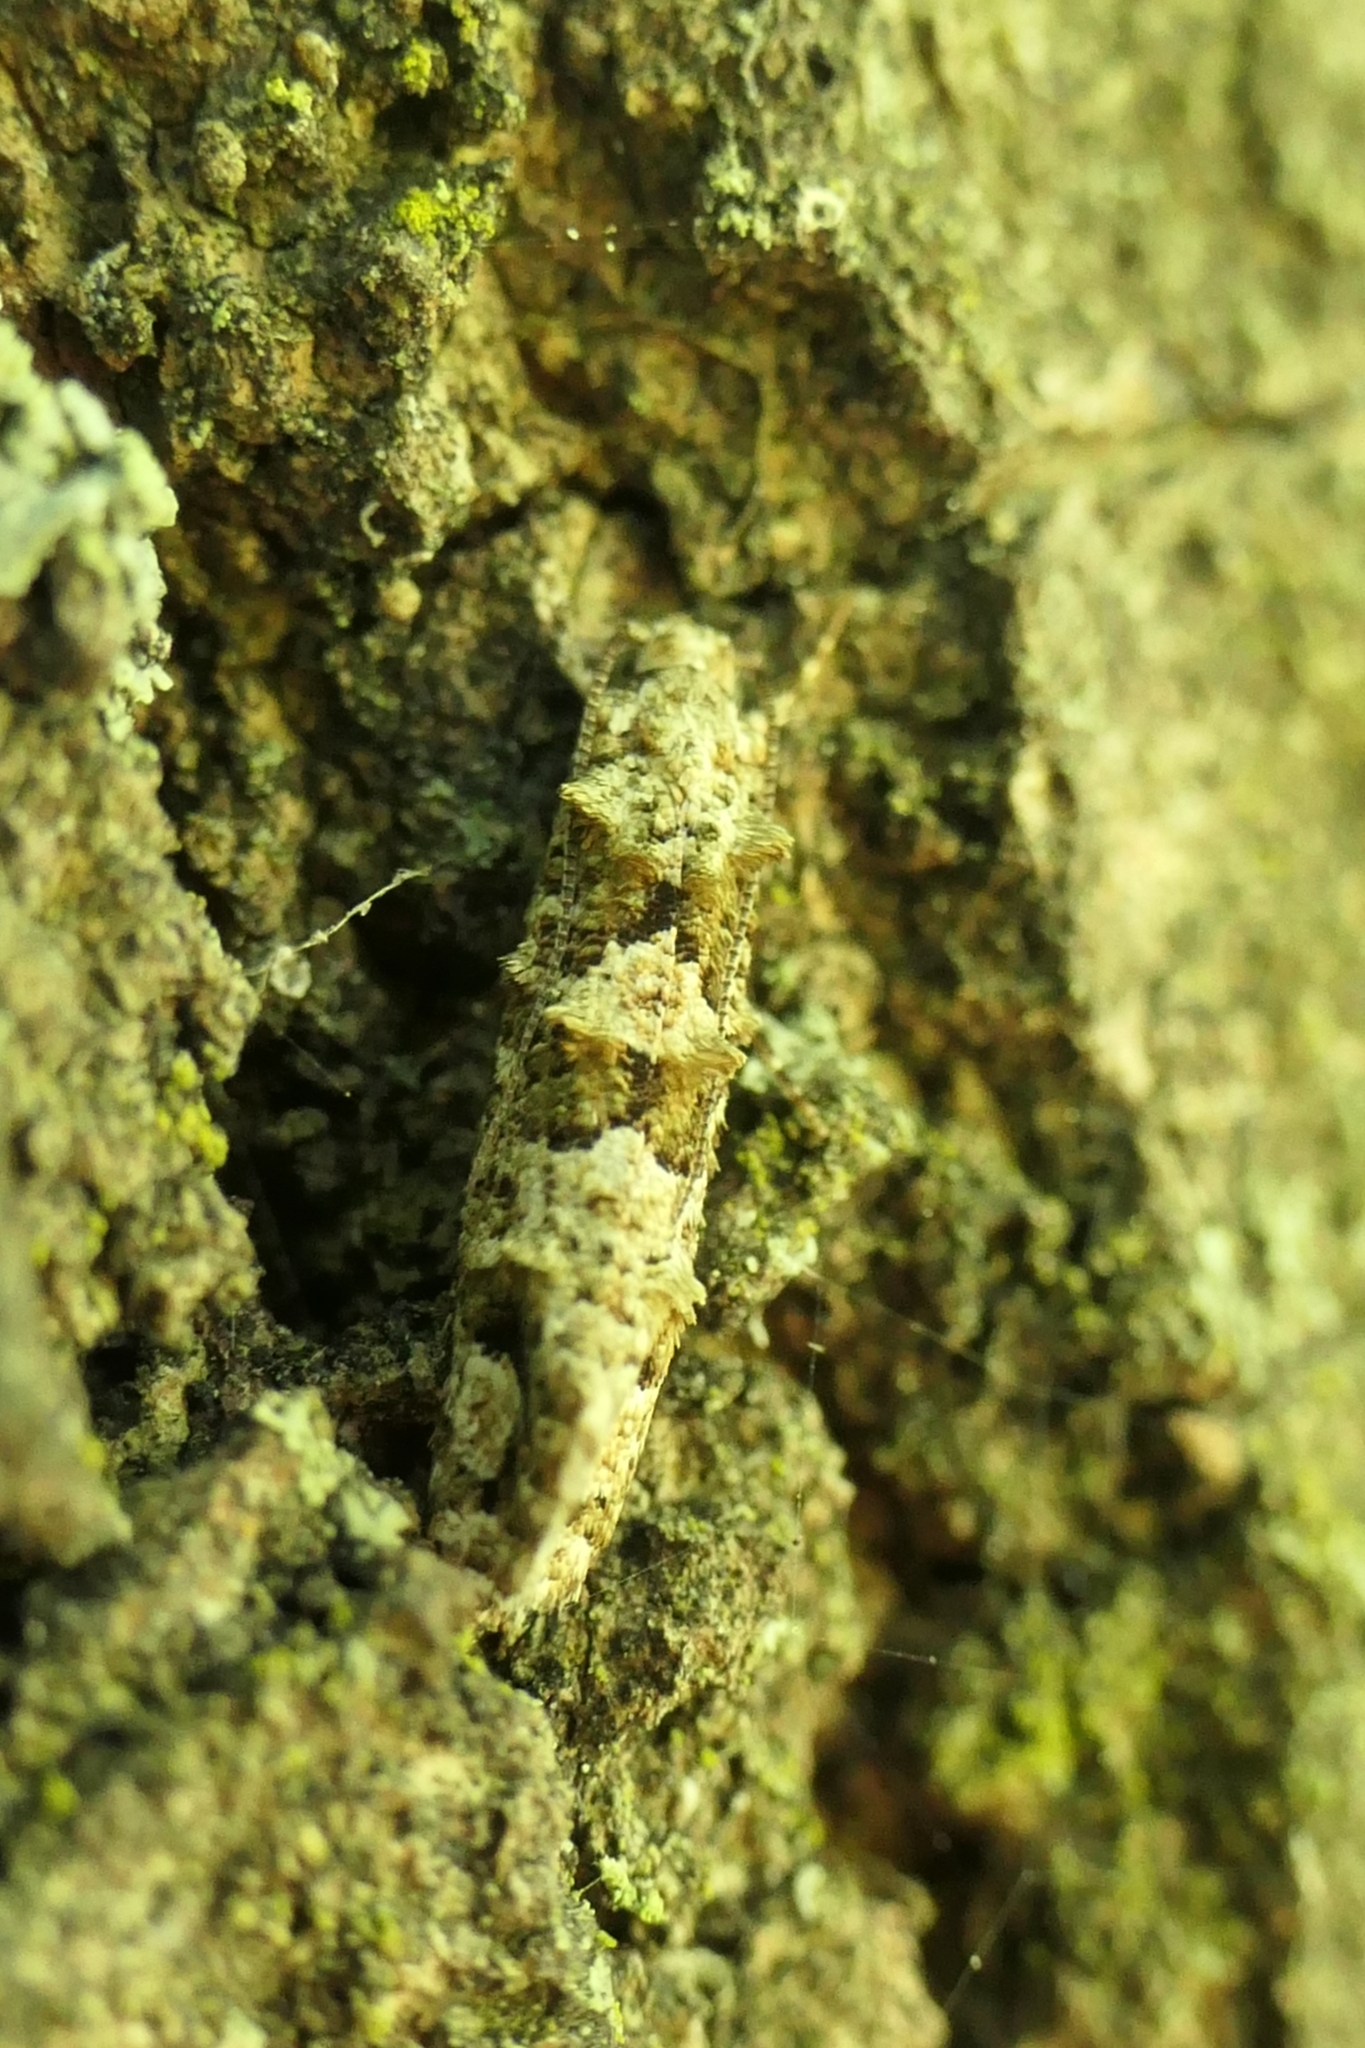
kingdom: Animalia
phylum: Arthropoda
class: Insecta
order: Lepidoptera
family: Tineidae
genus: Lysiphragma
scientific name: Lysiphragma howesii
